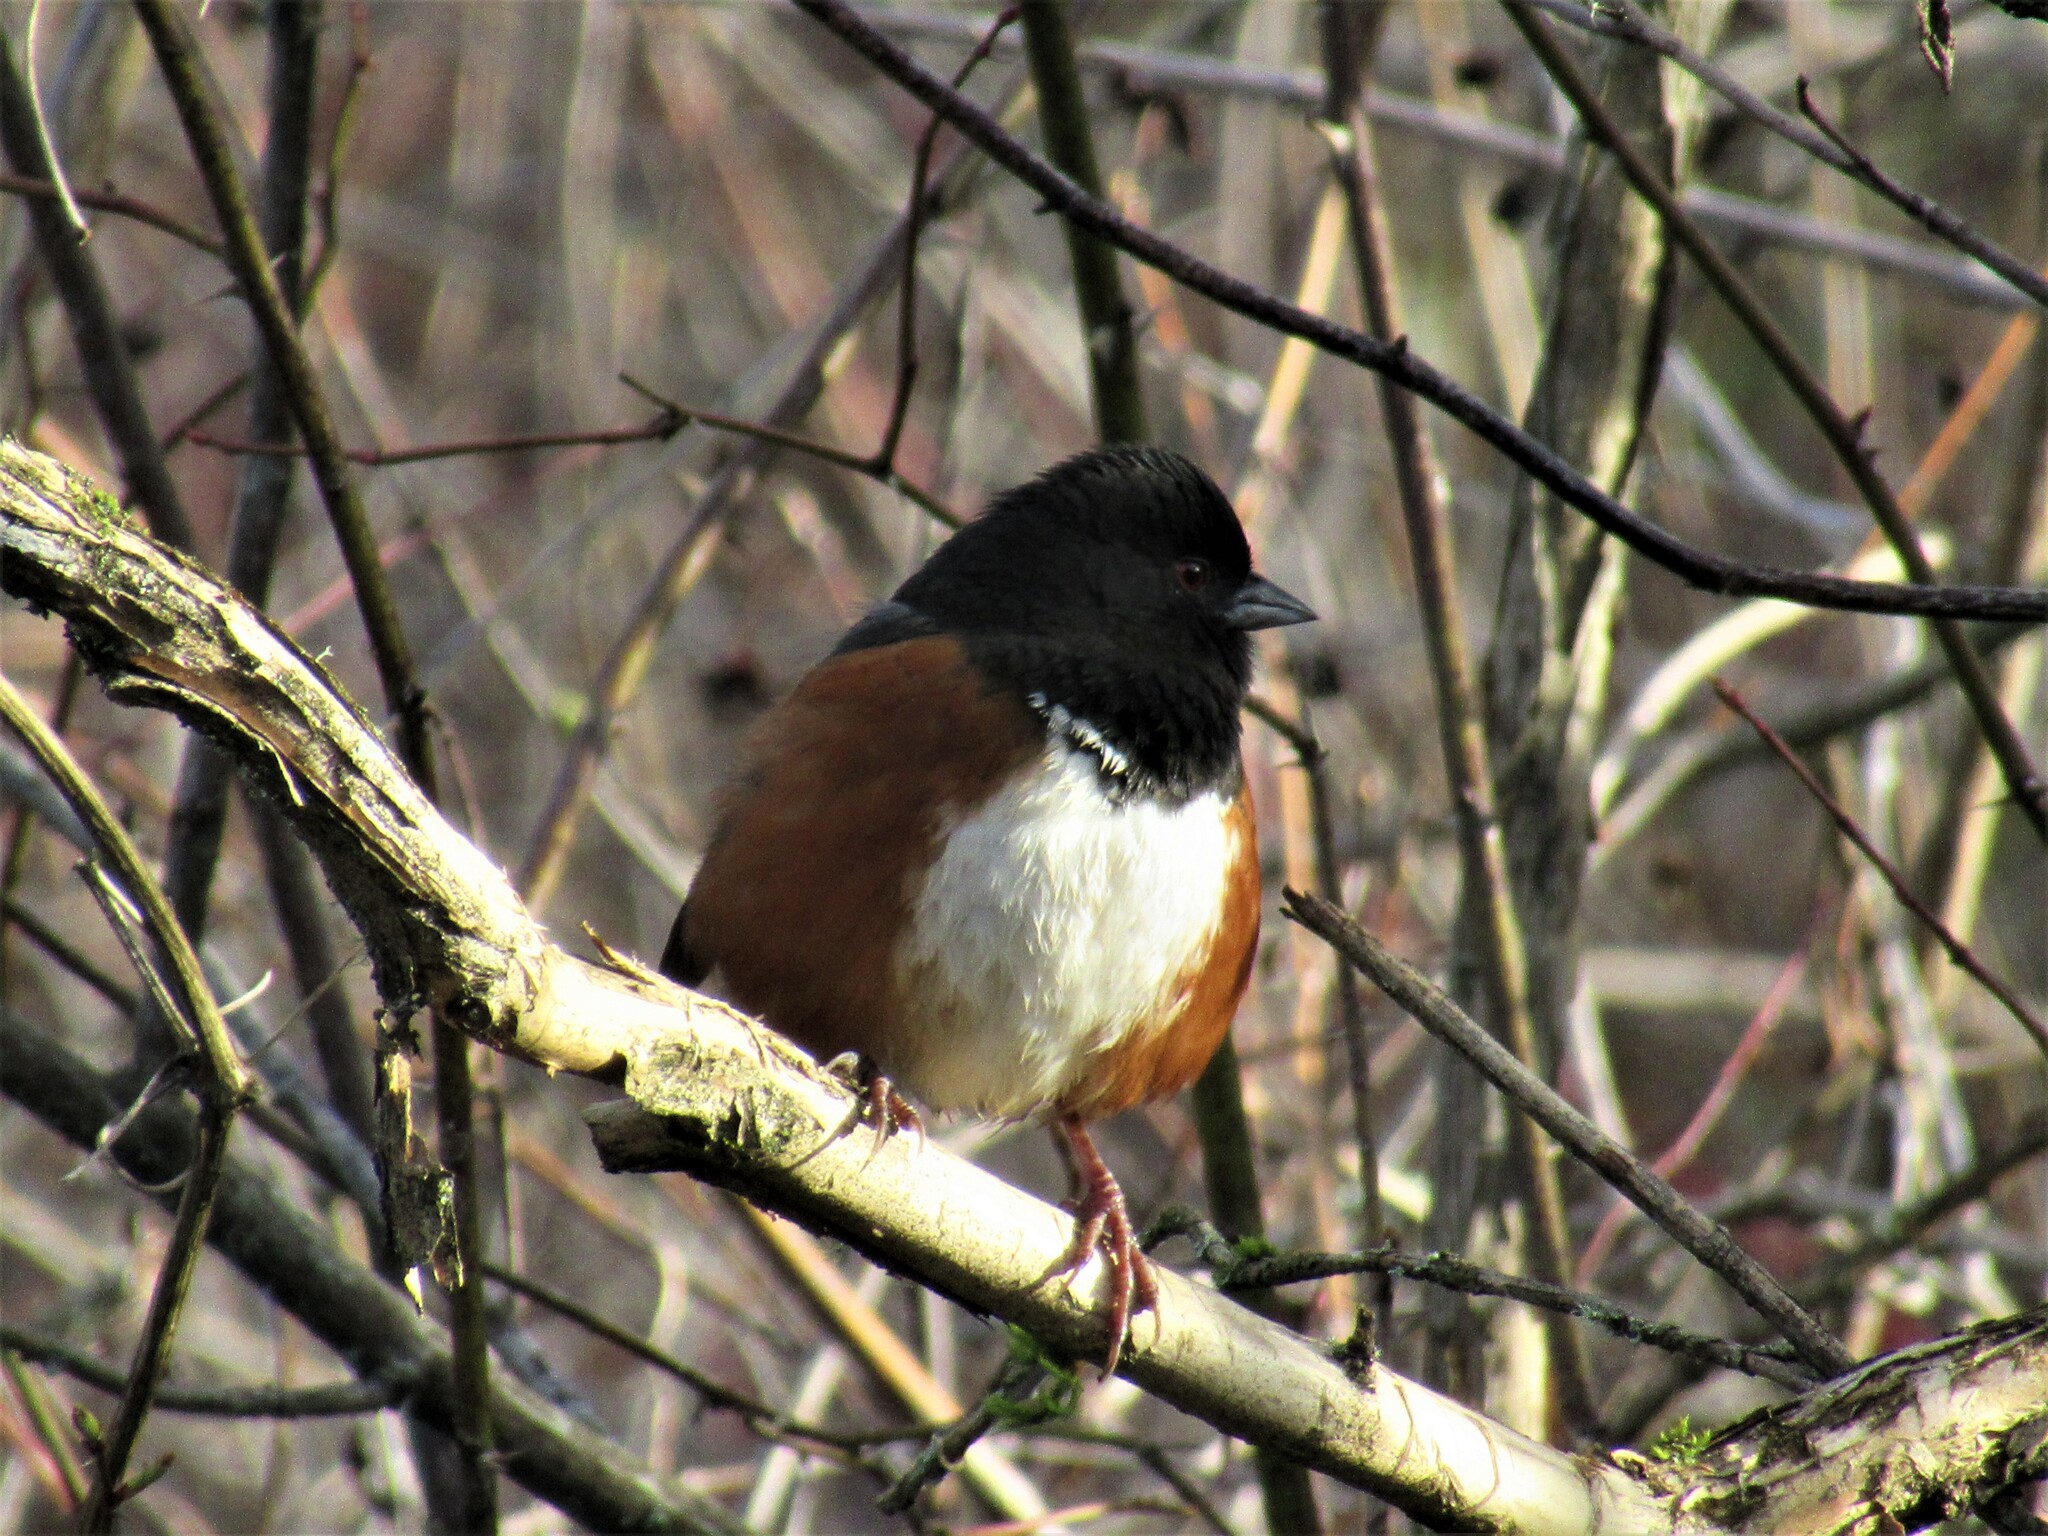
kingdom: Animalia
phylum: Chordata
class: Aves
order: Passeriformes
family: Passerellidae
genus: Pipilo
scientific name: Pipilo maculatus
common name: Spotted towhee
